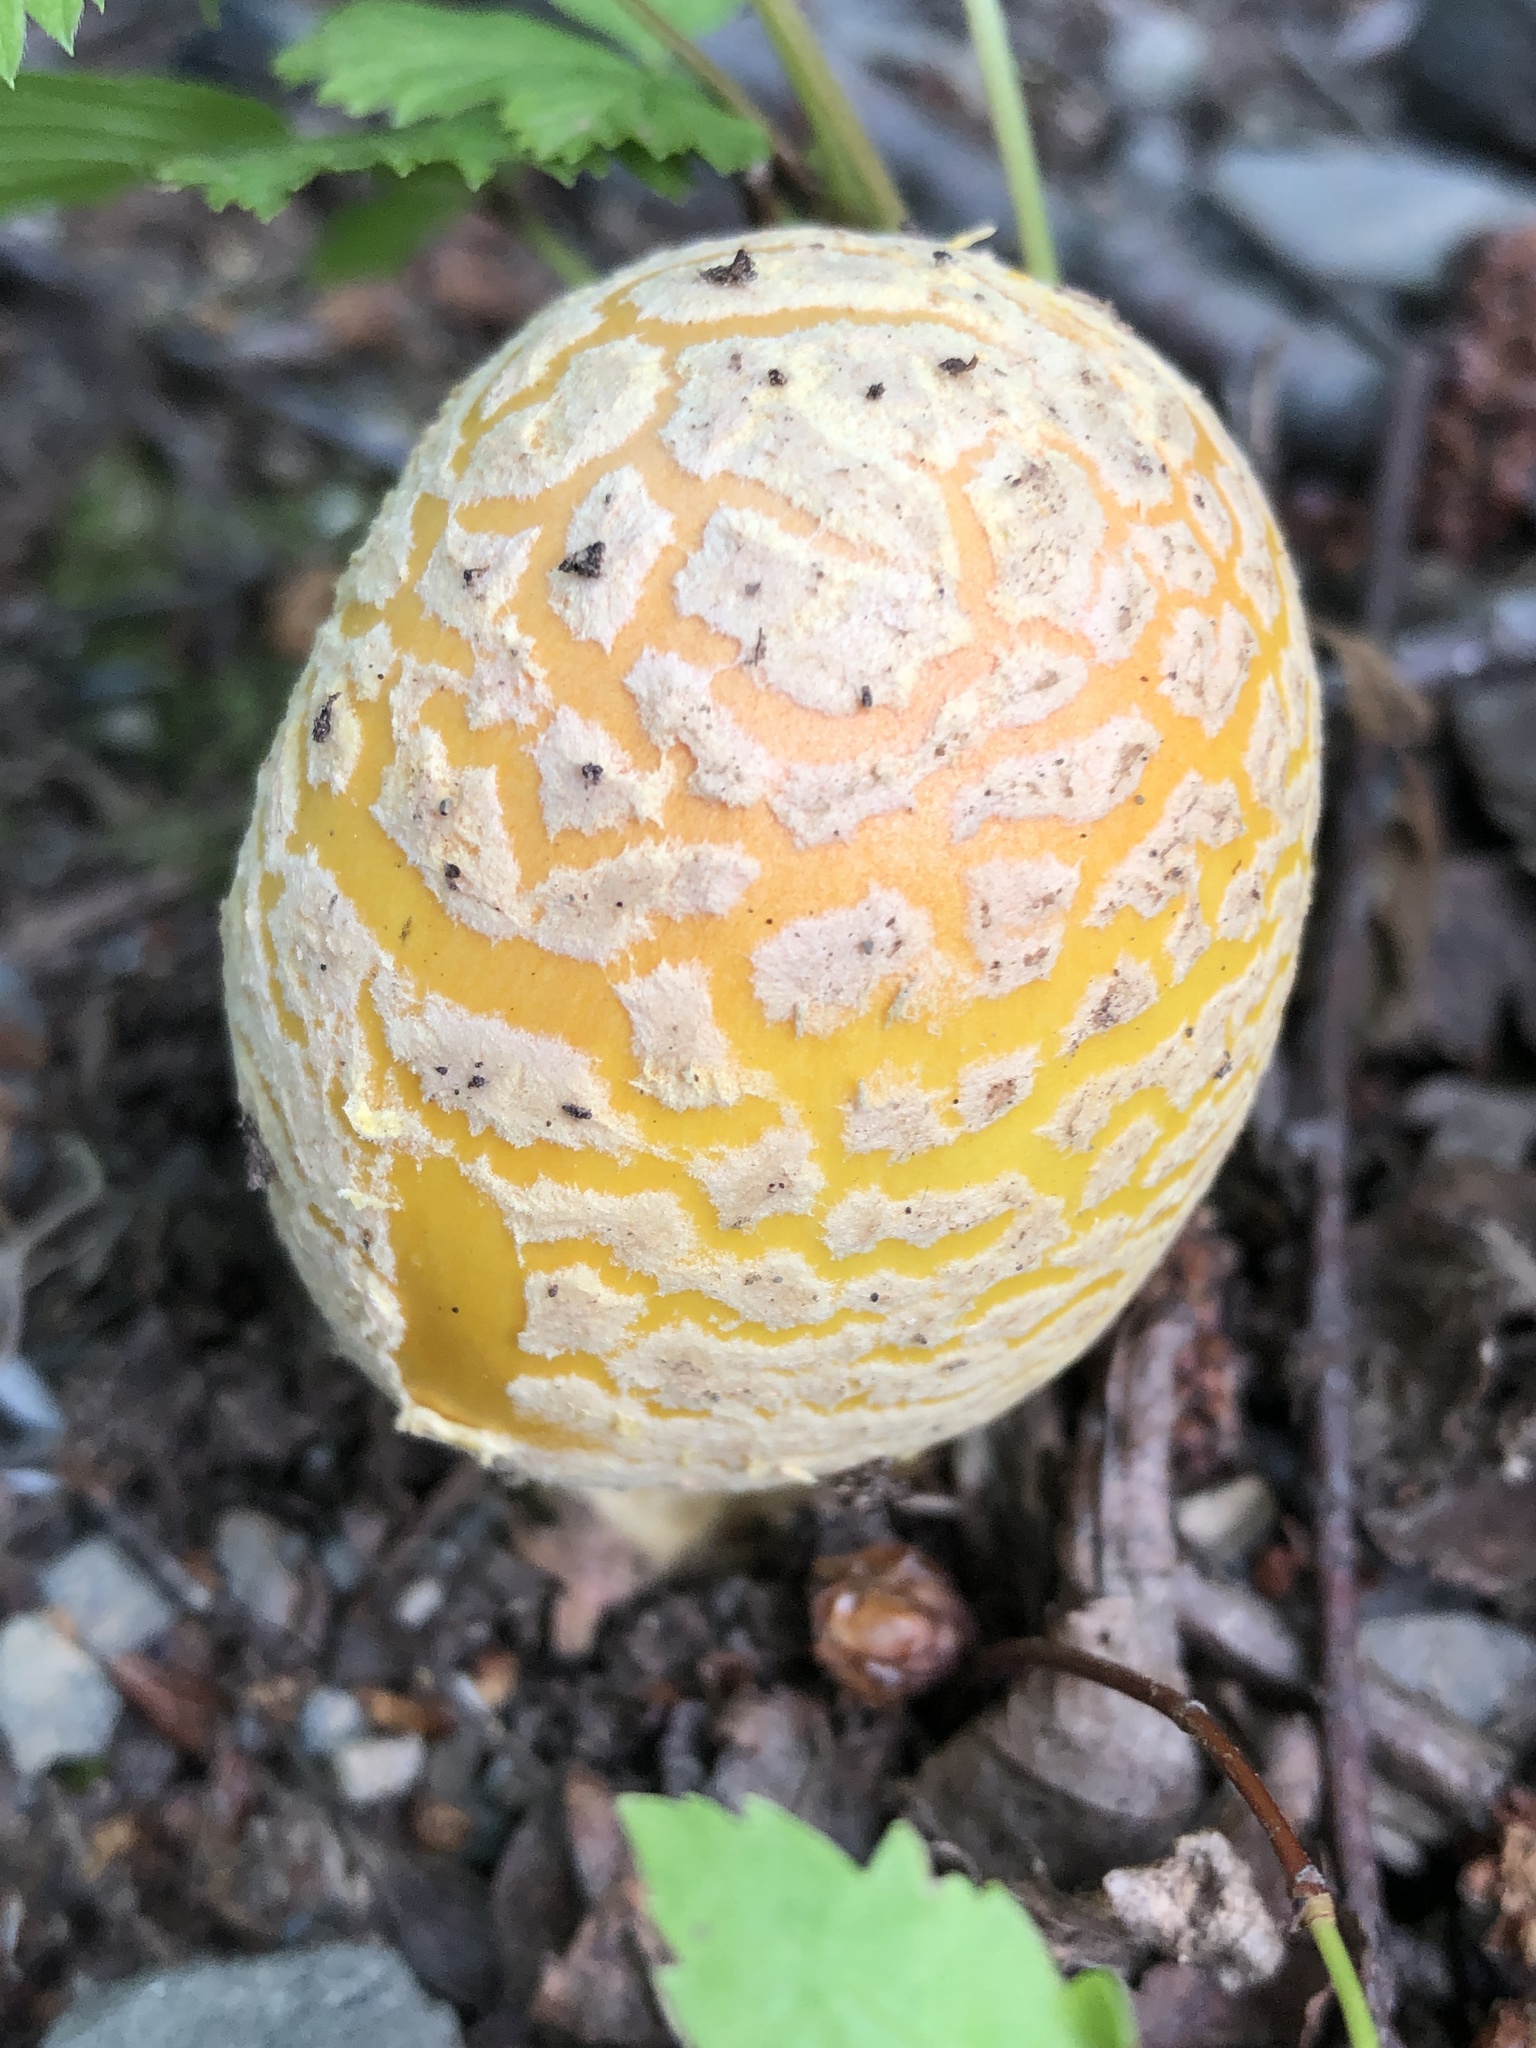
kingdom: Fungi
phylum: Basidiomycota
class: Agaricomycetes
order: Agaricales
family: Amanitaceae
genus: Amanita
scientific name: Amanita muscaria
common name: Fly agaric
